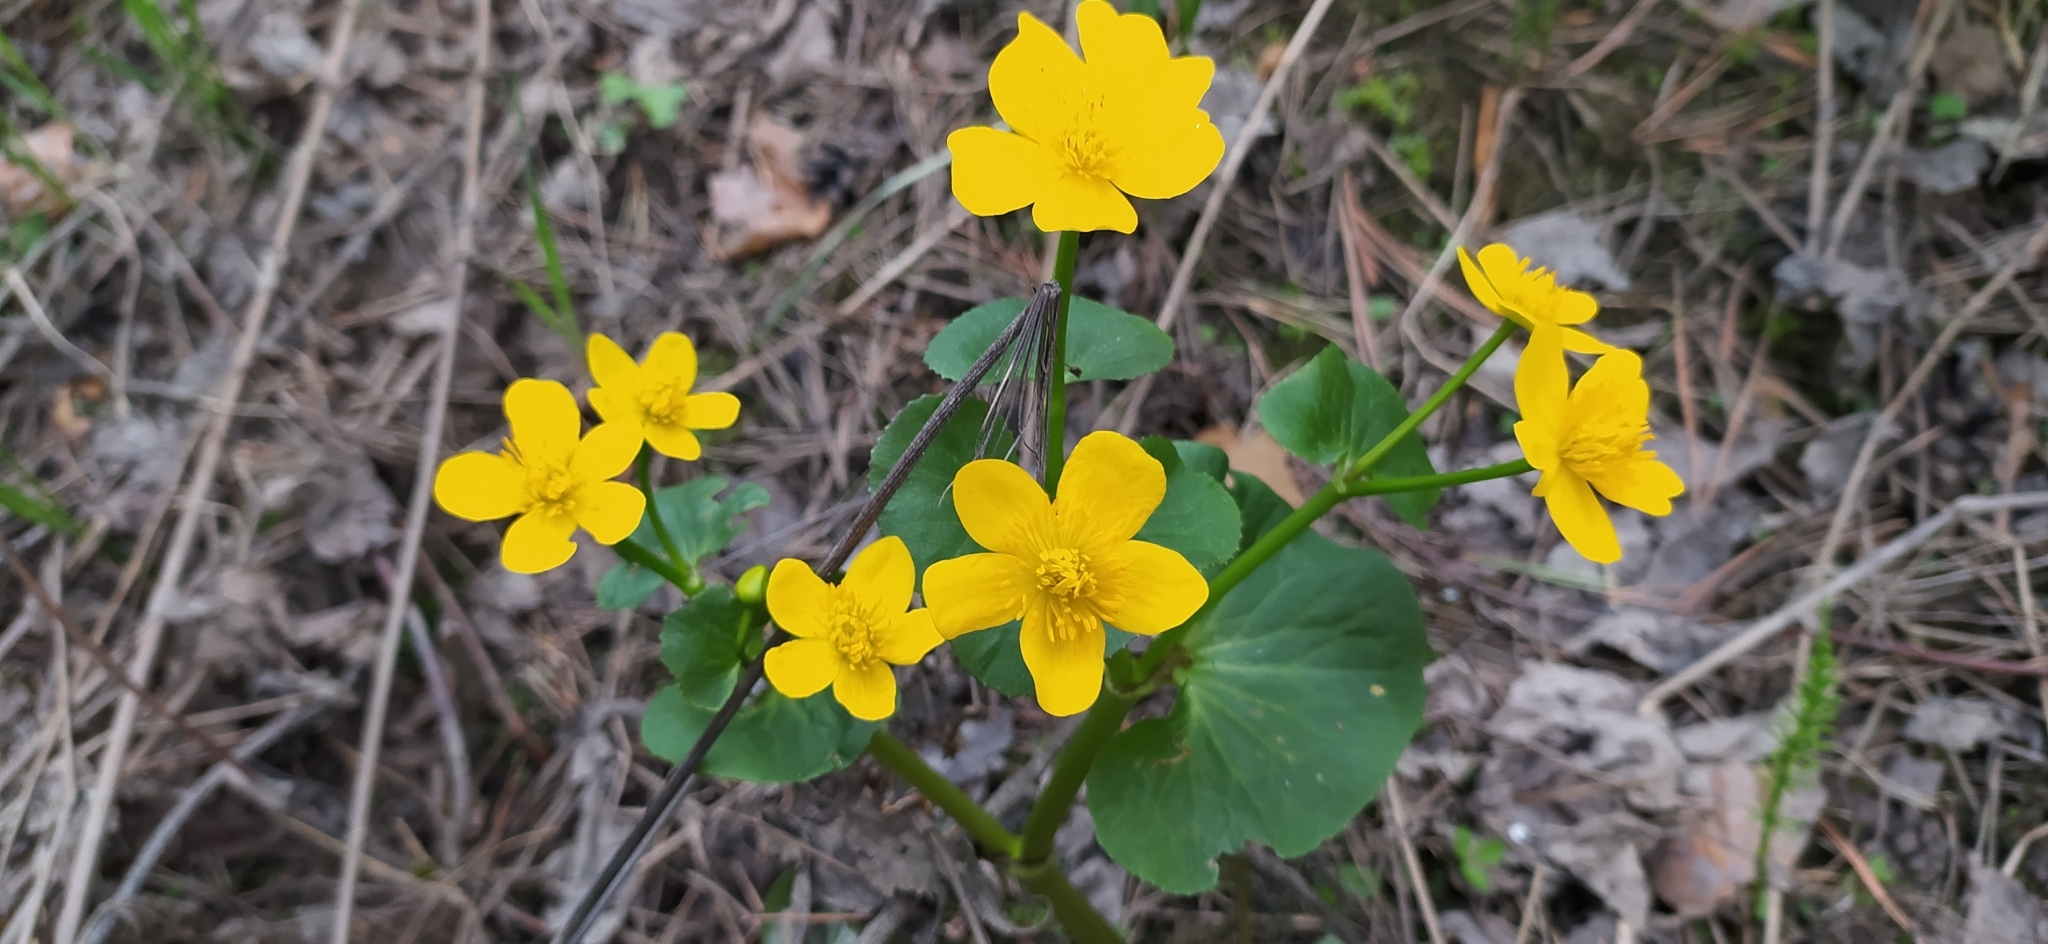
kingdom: Plantae
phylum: Tracheophyta
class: Magnoliopsida
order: Ranunculales
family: Ranunculaceae
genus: Caltha
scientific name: Caltha palustris
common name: Marsh marigold
